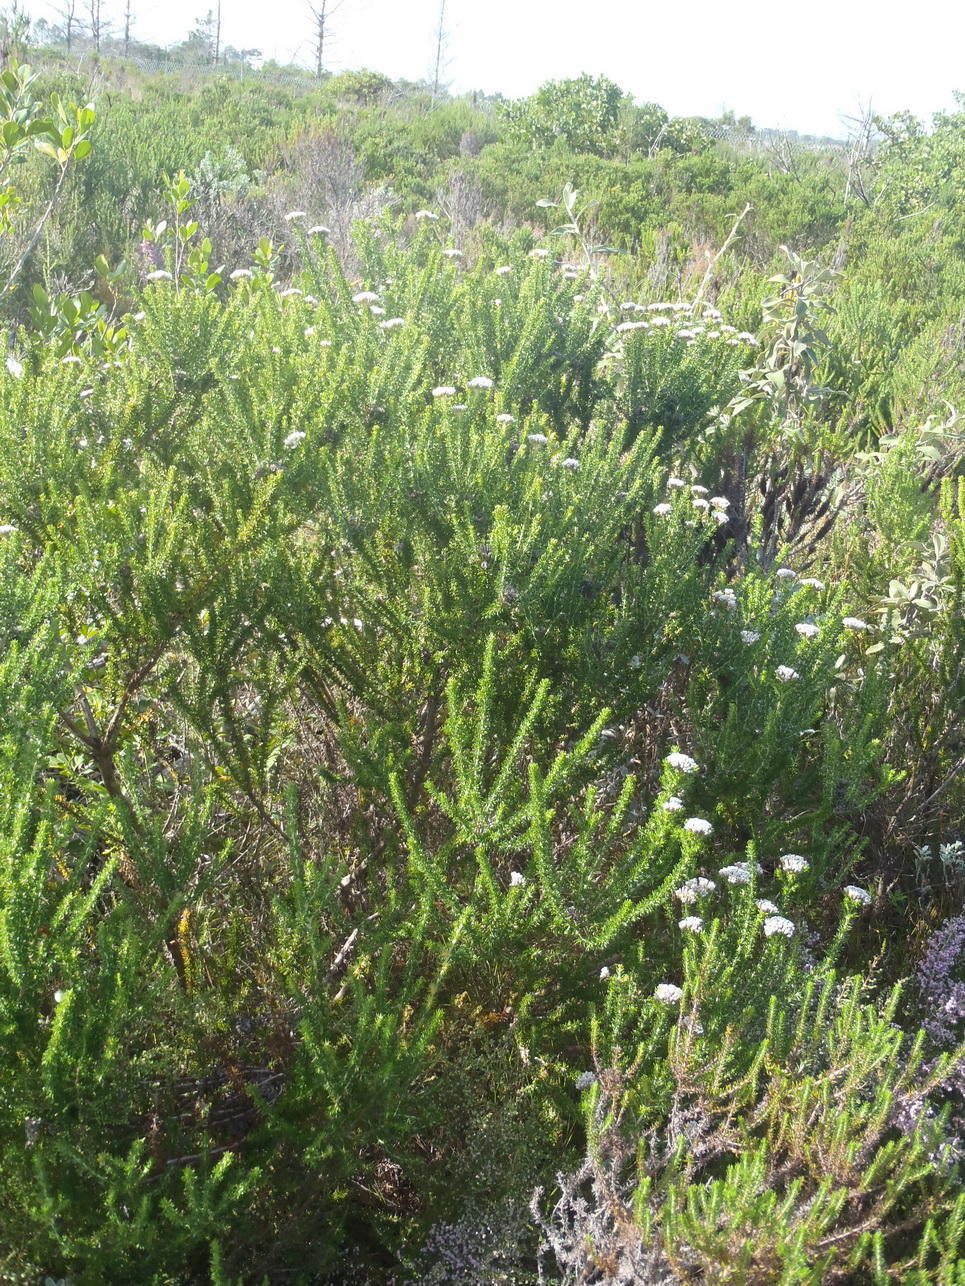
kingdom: Plantae
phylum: Tracheophyta
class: Magnoliopsida
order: Asterales
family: Asteraceae
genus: Metalasia
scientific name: Metalasia muricata
